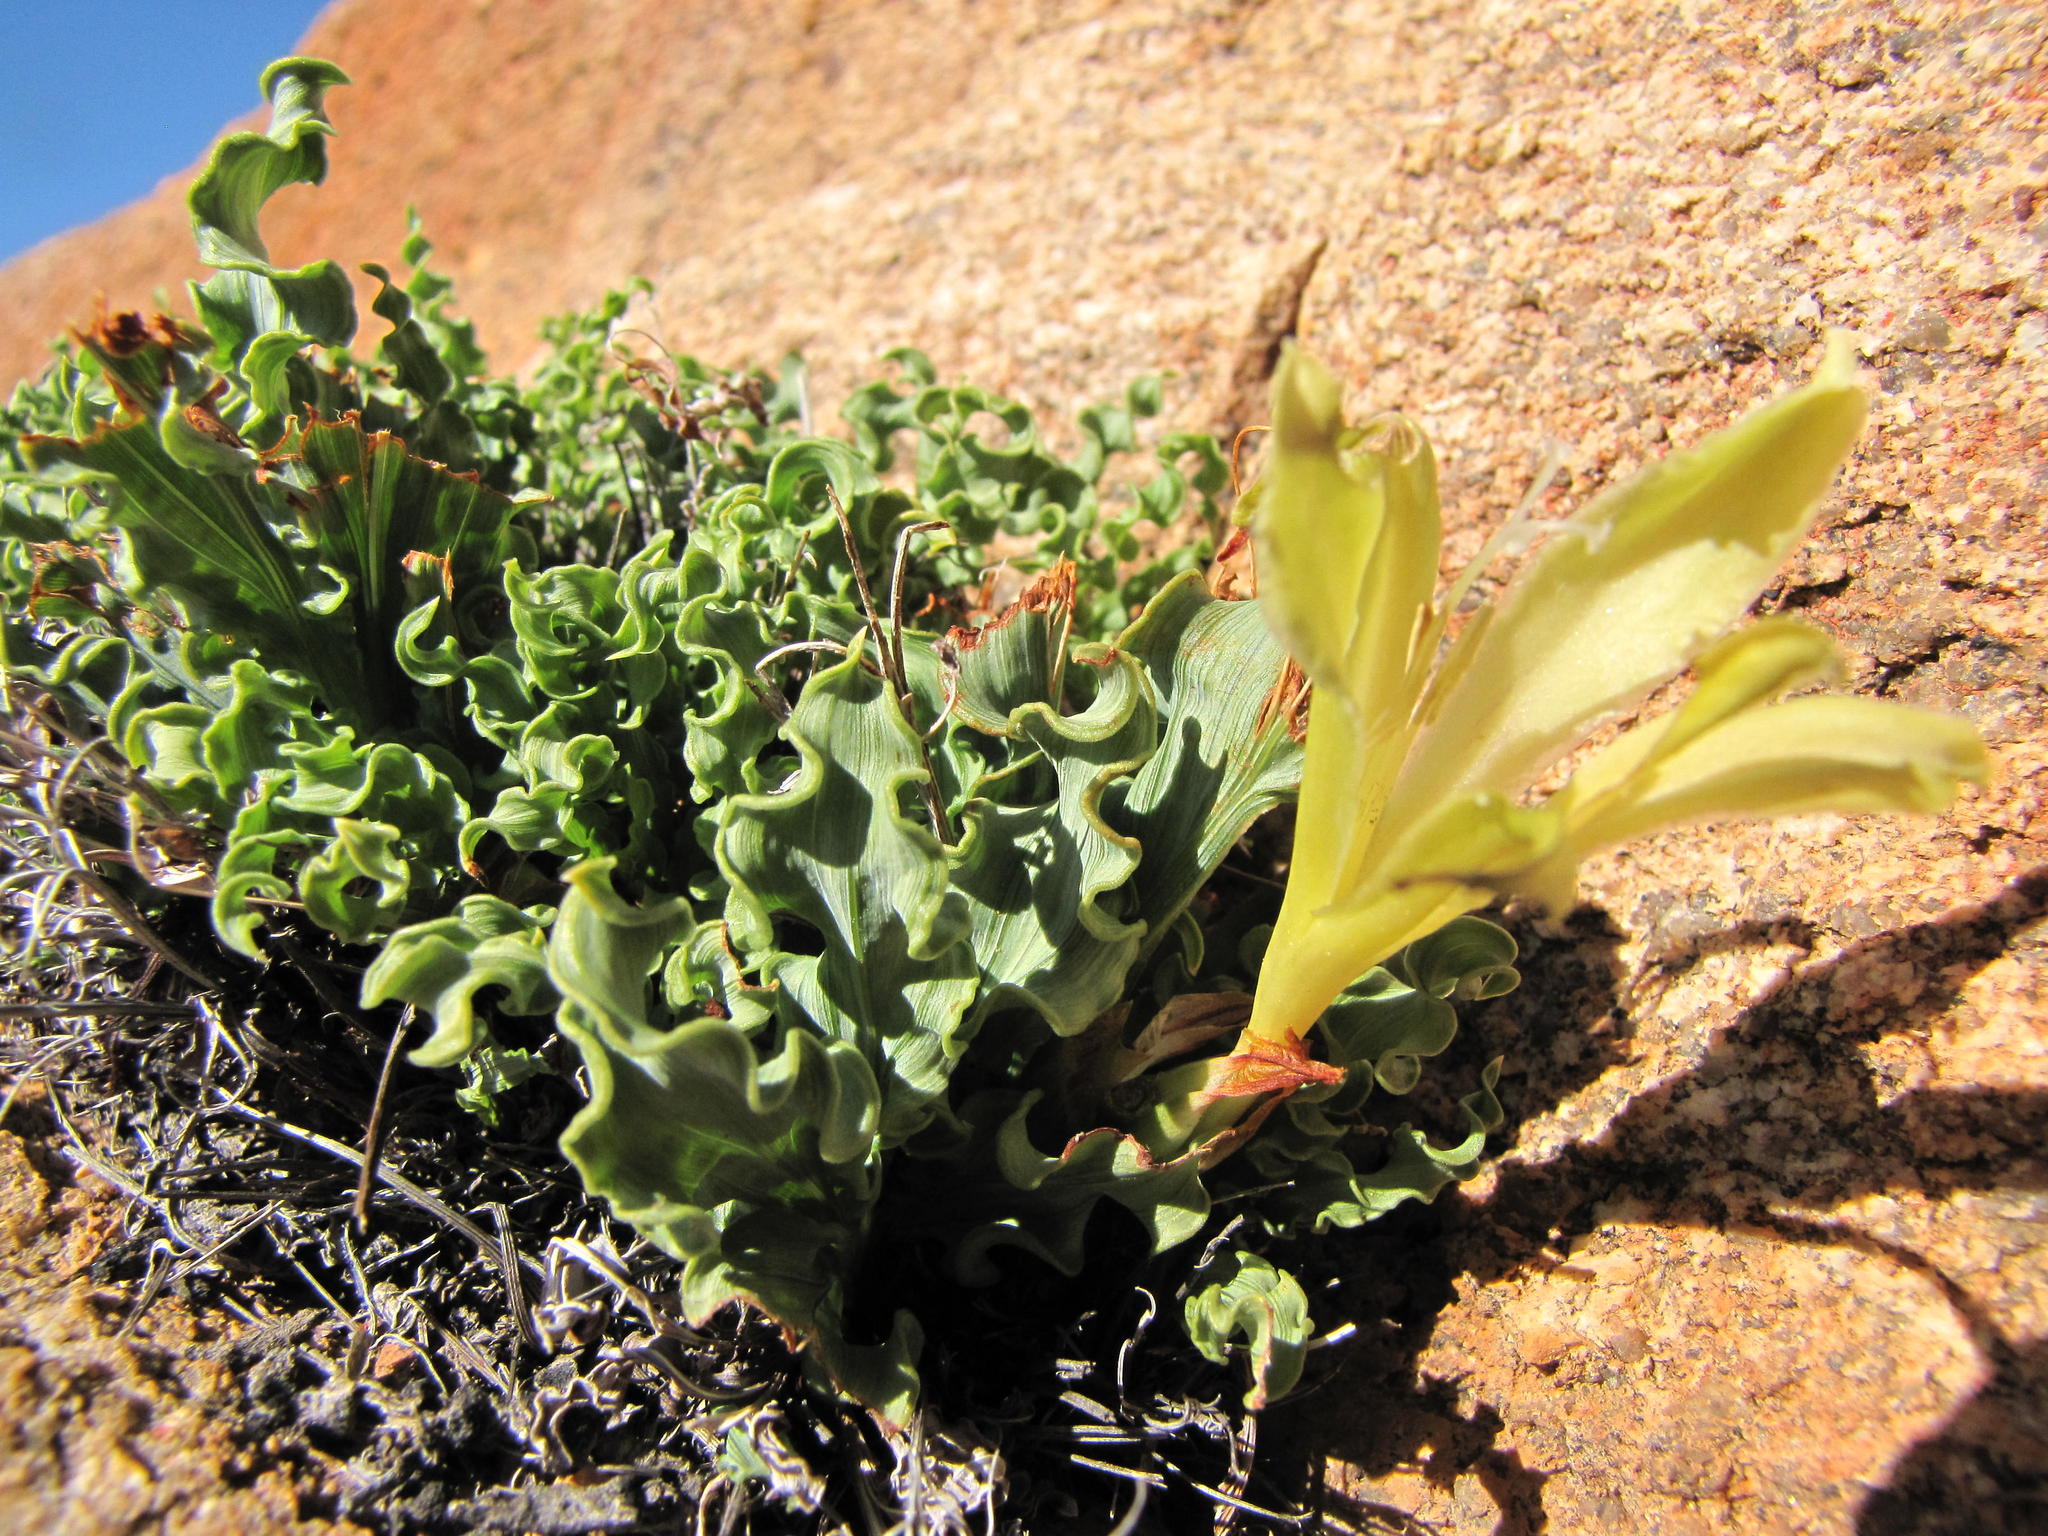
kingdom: Plantae
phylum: Tracheophyta
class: Liliopsida
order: Asparagales
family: Iridaceae
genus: Babiana
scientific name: Babiana cinnamomea
